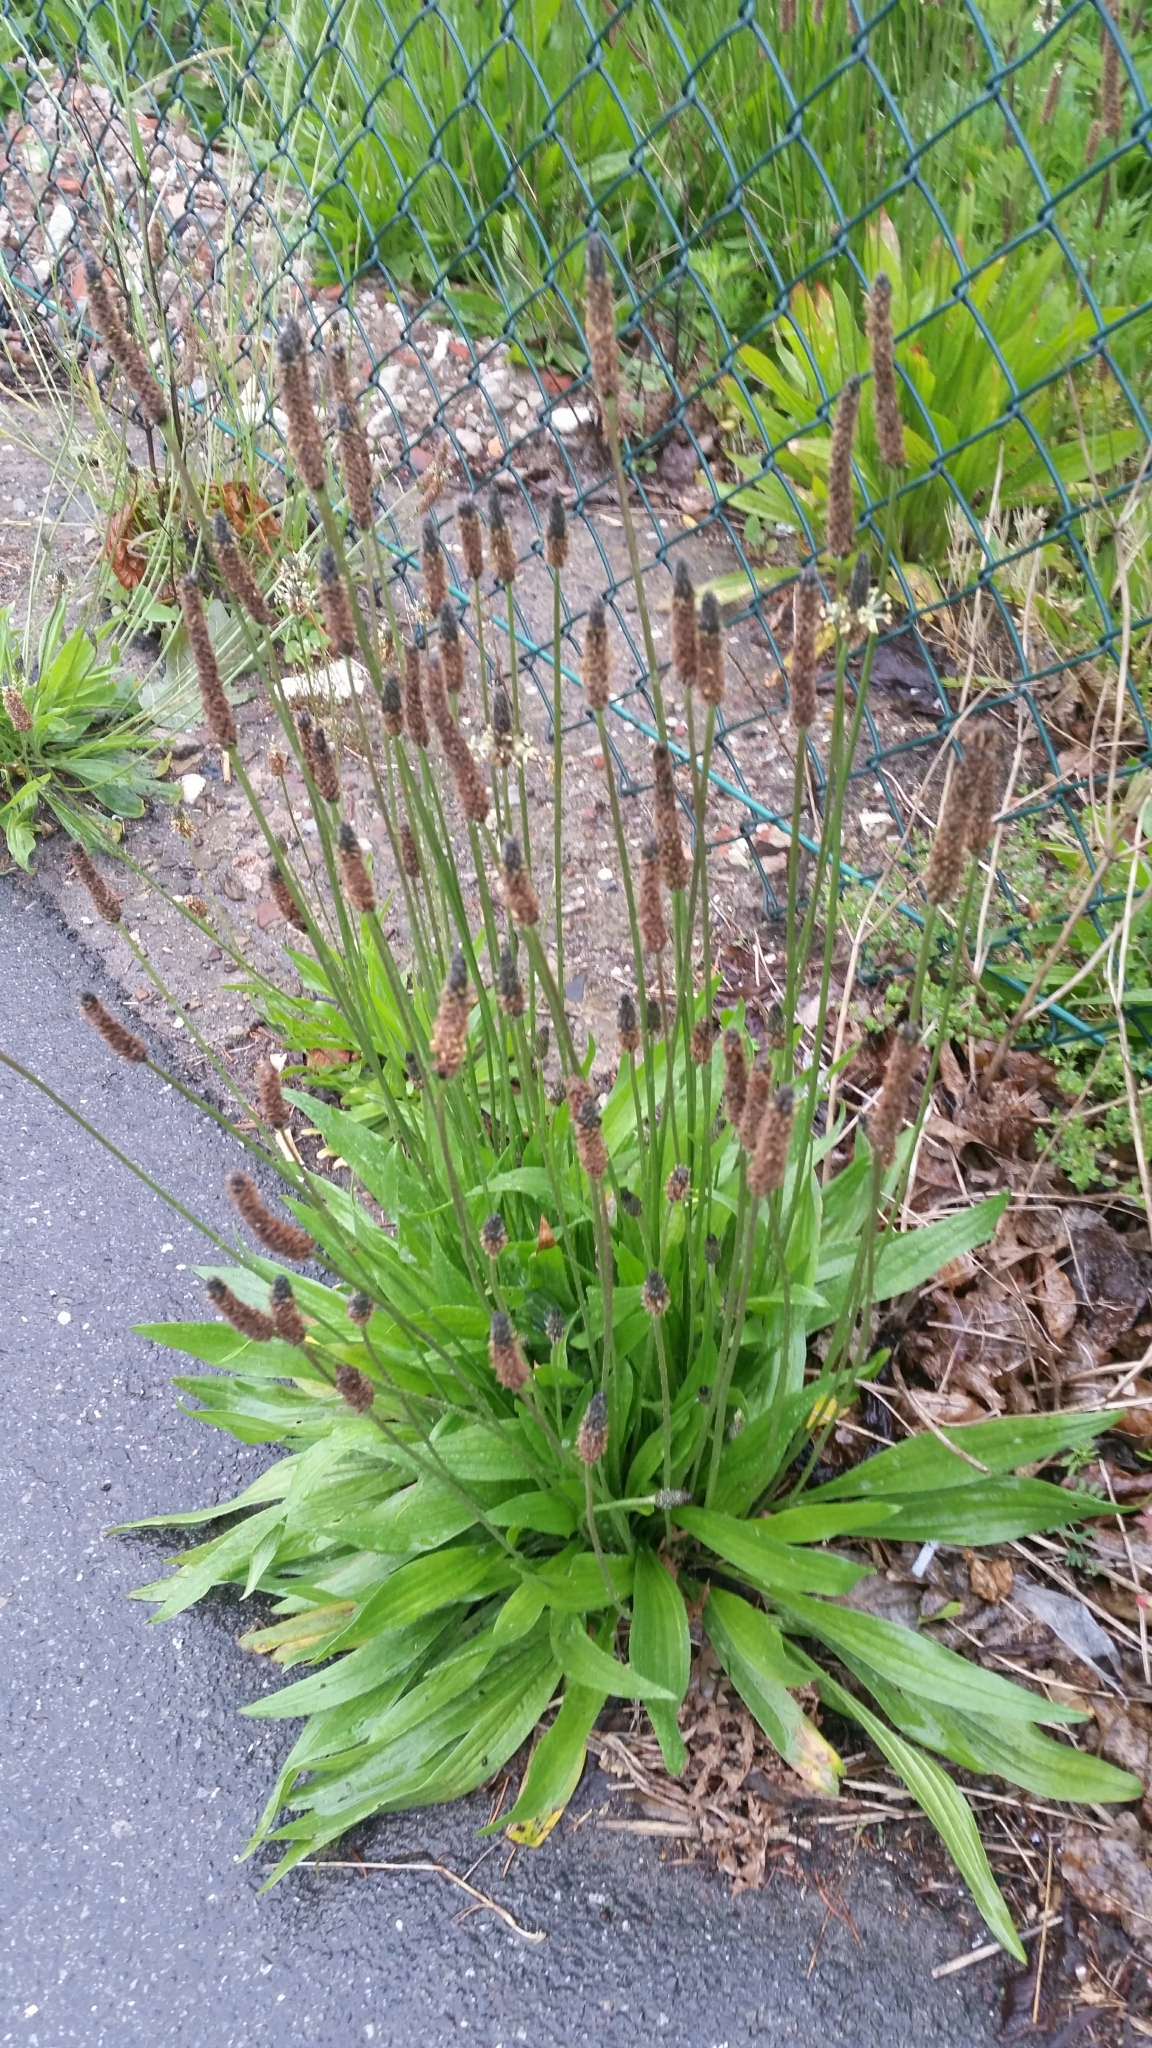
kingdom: Plantae
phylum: Tracheophyta
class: Magnoliopsida
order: Lamiales
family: Plantaginaceae
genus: Plantago
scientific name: Plantago lanceolata
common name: Ribwort plantain
